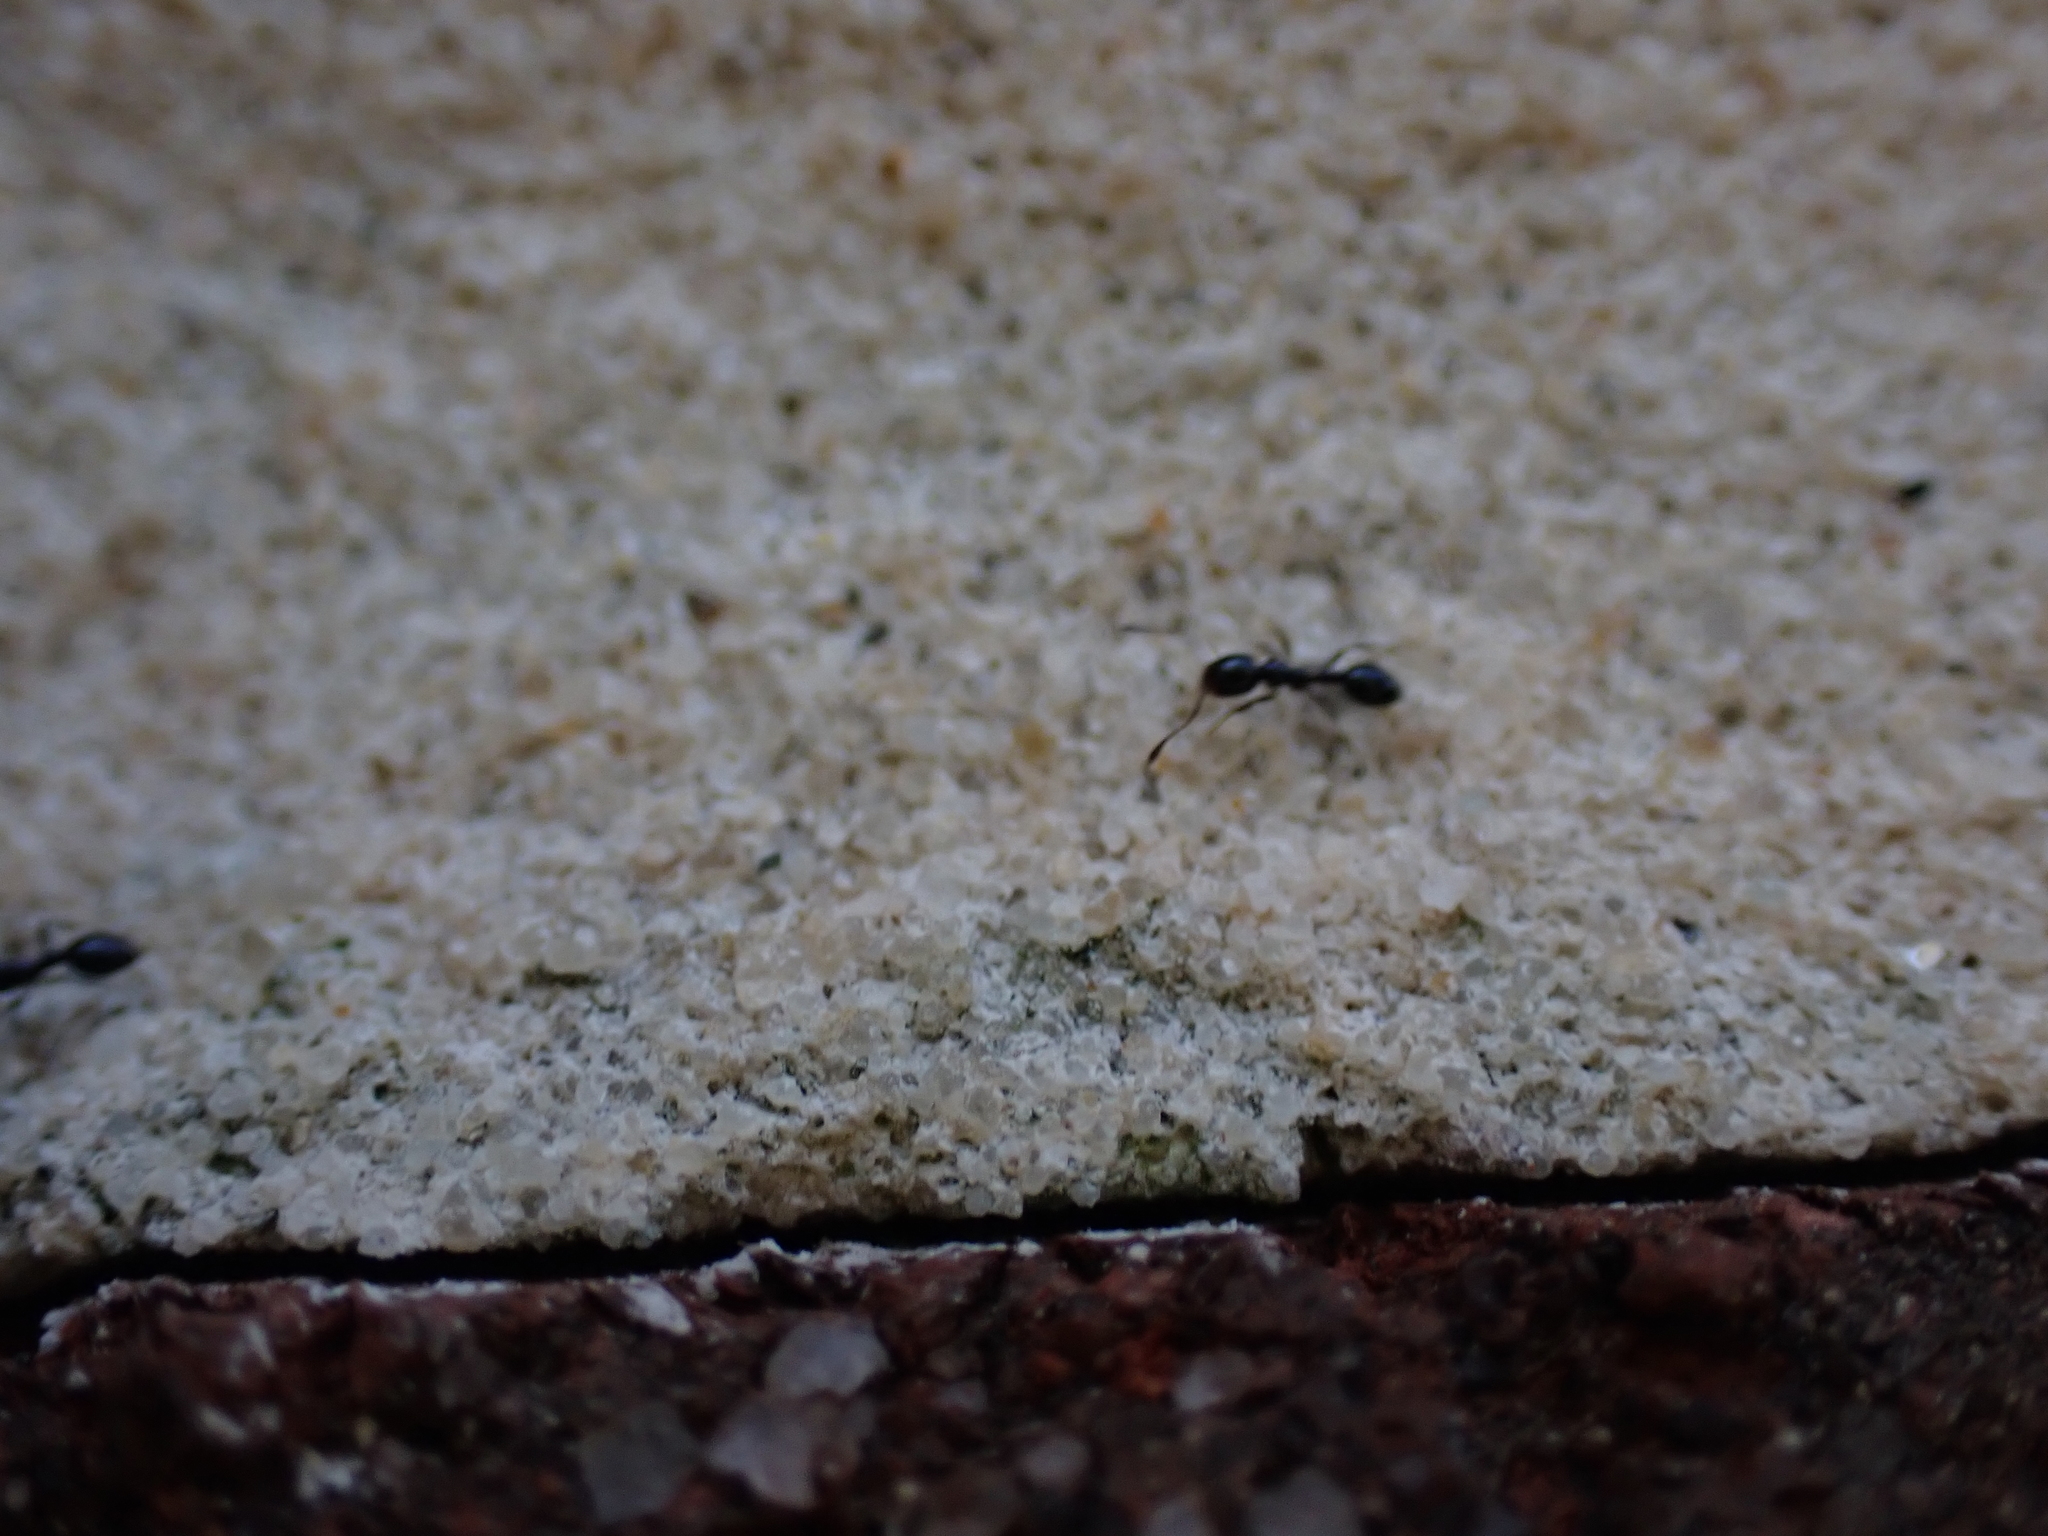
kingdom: Animalia
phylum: Arthropoda
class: Insecta
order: Hymenoptera
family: Formicidae
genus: Monomorium
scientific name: Monomorium minimum
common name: Little black ant
